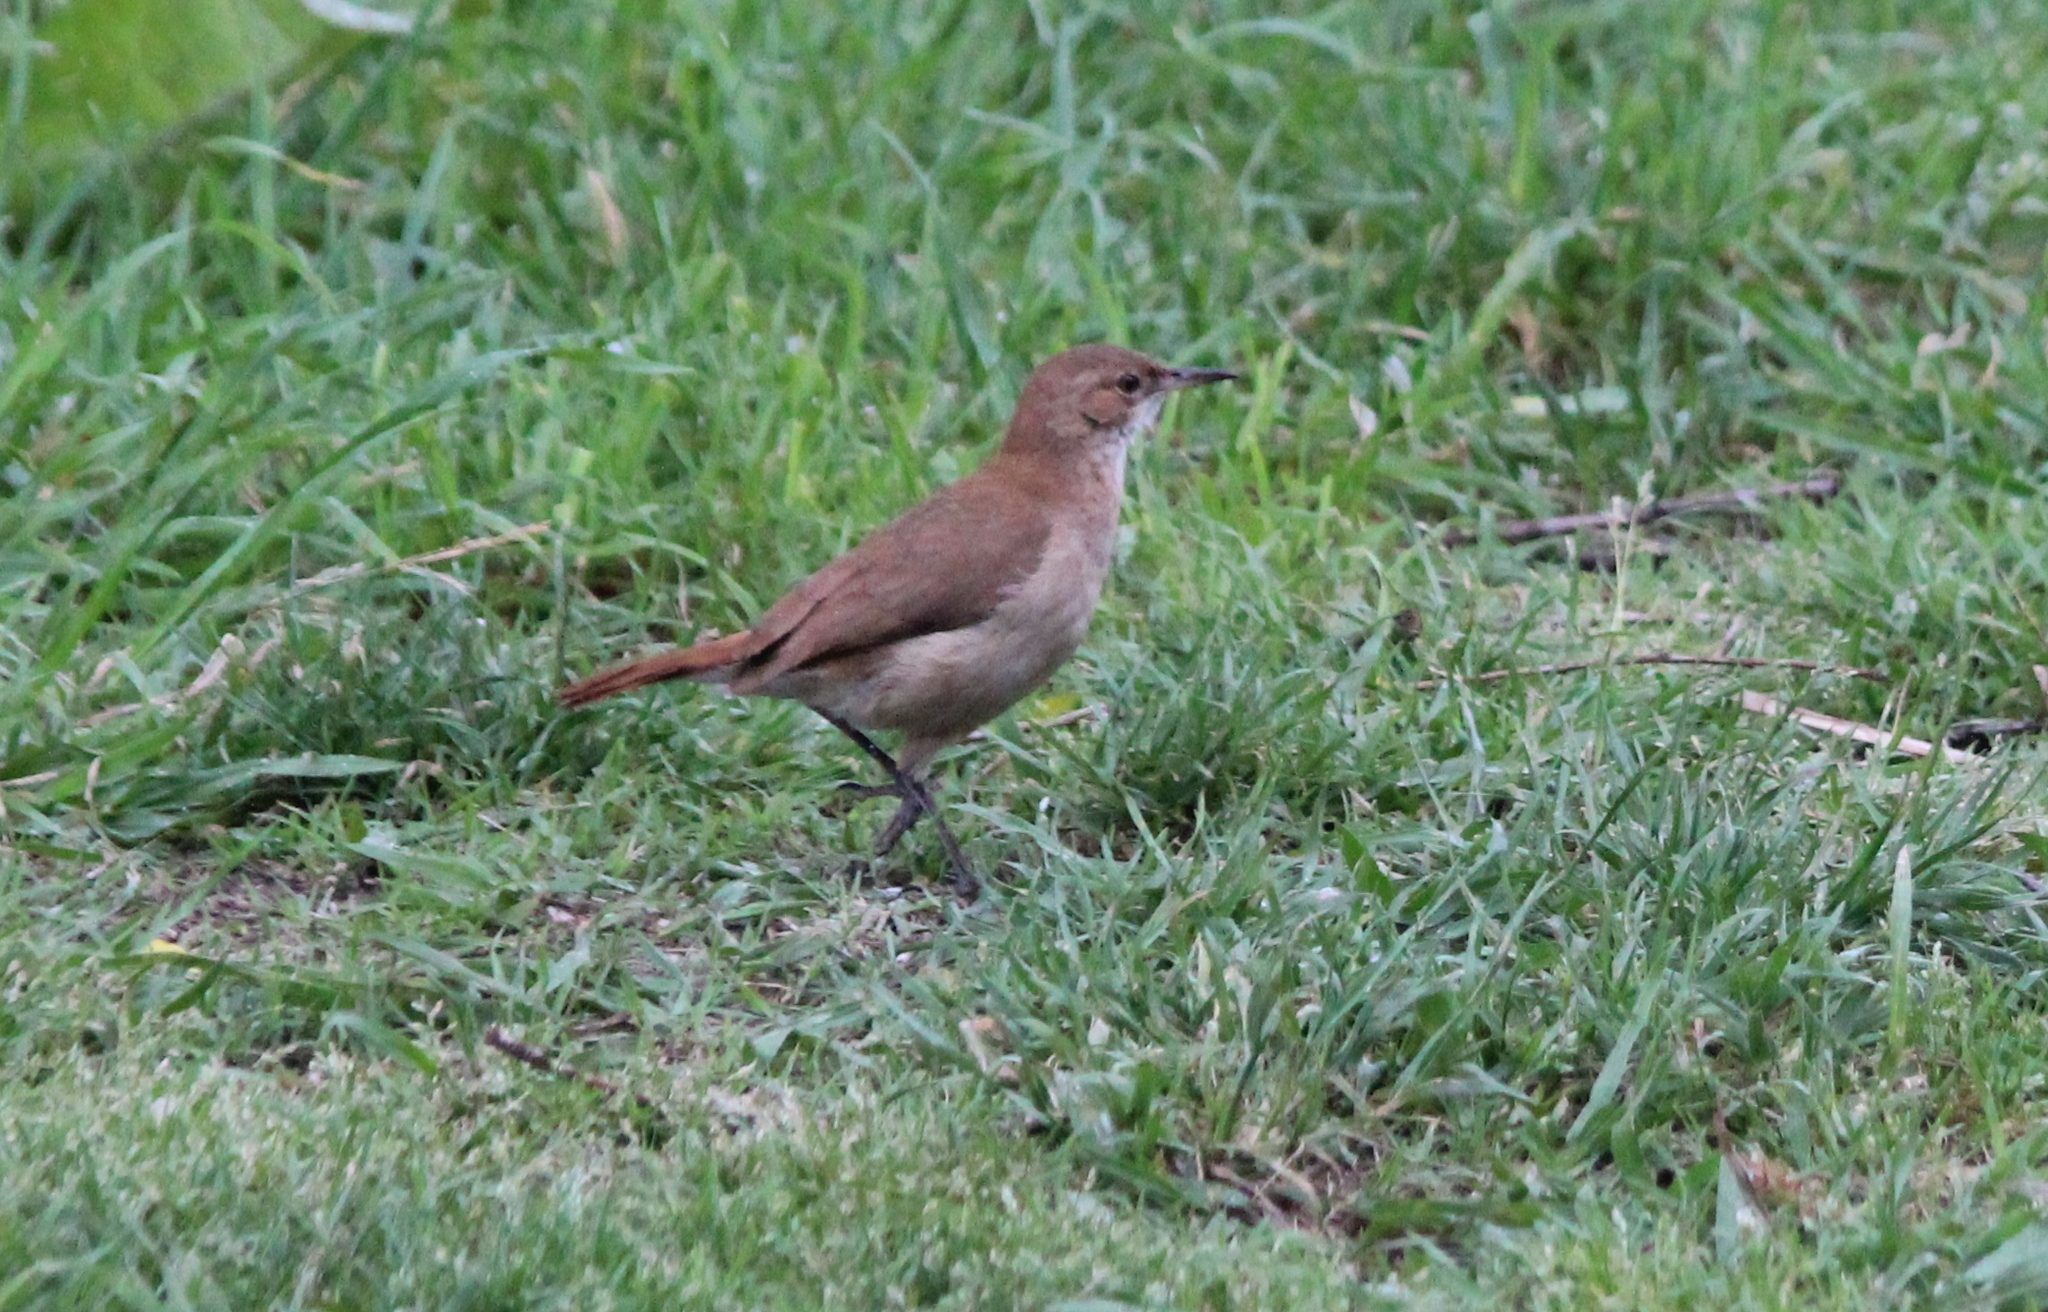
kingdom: Animalia
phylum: Chordata
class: Aves
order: Passeriformes
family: Furnariidae
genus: Furnarius
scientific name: Furnarius rufus
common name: Rufous hornero
